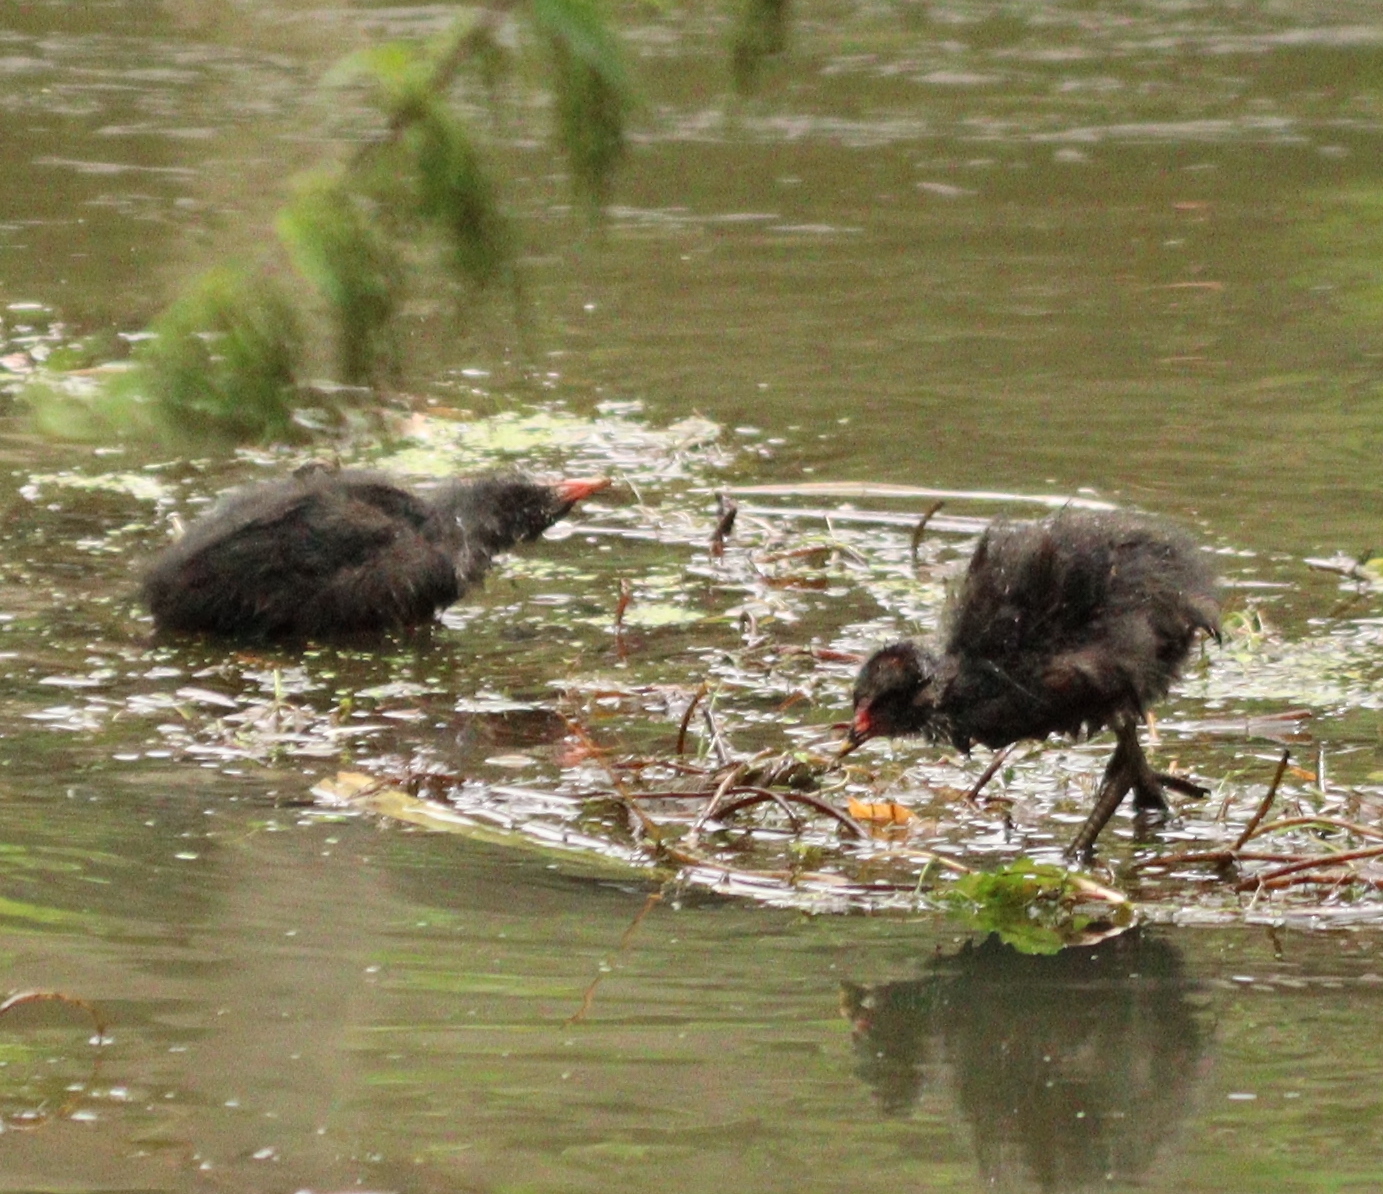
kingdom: Animalia
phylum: Chordata
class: Aves
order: Gruiformes
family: Rallidae
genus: Gallinula
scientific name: Gallinula chloropus
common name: Common moorhen
